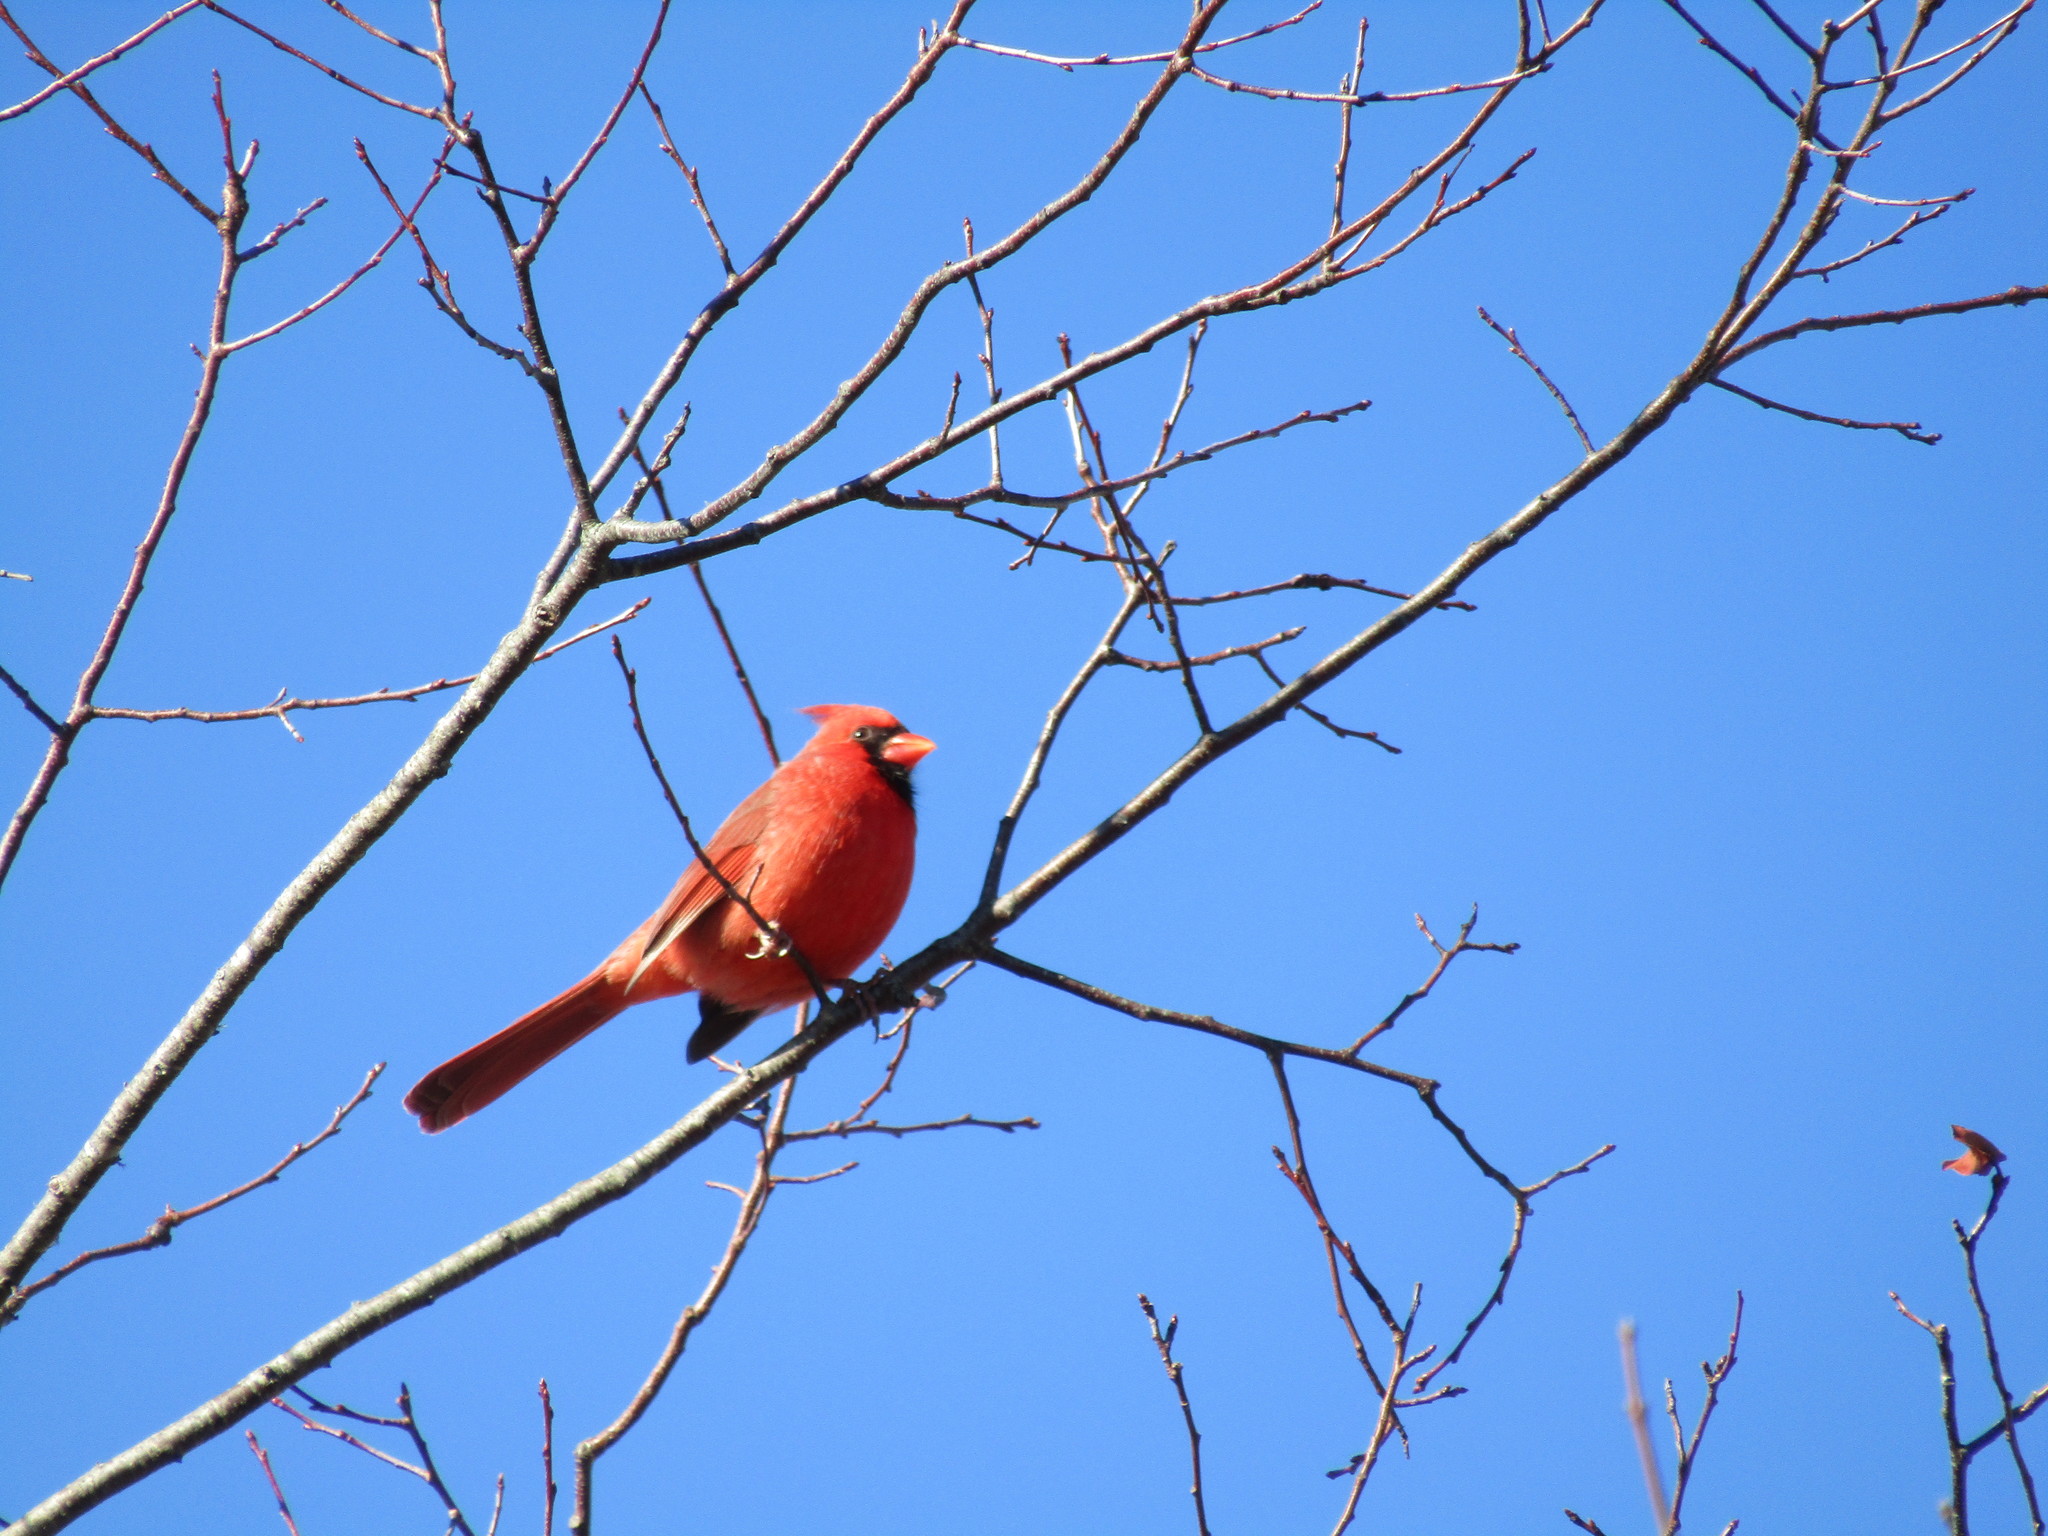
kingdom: Animalia
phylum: Chordata
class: Aves
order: Passeriformes
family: Cardinalidae
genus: Cardinalis
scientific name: Cardinalis cardinalis
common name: Northern cardinal
